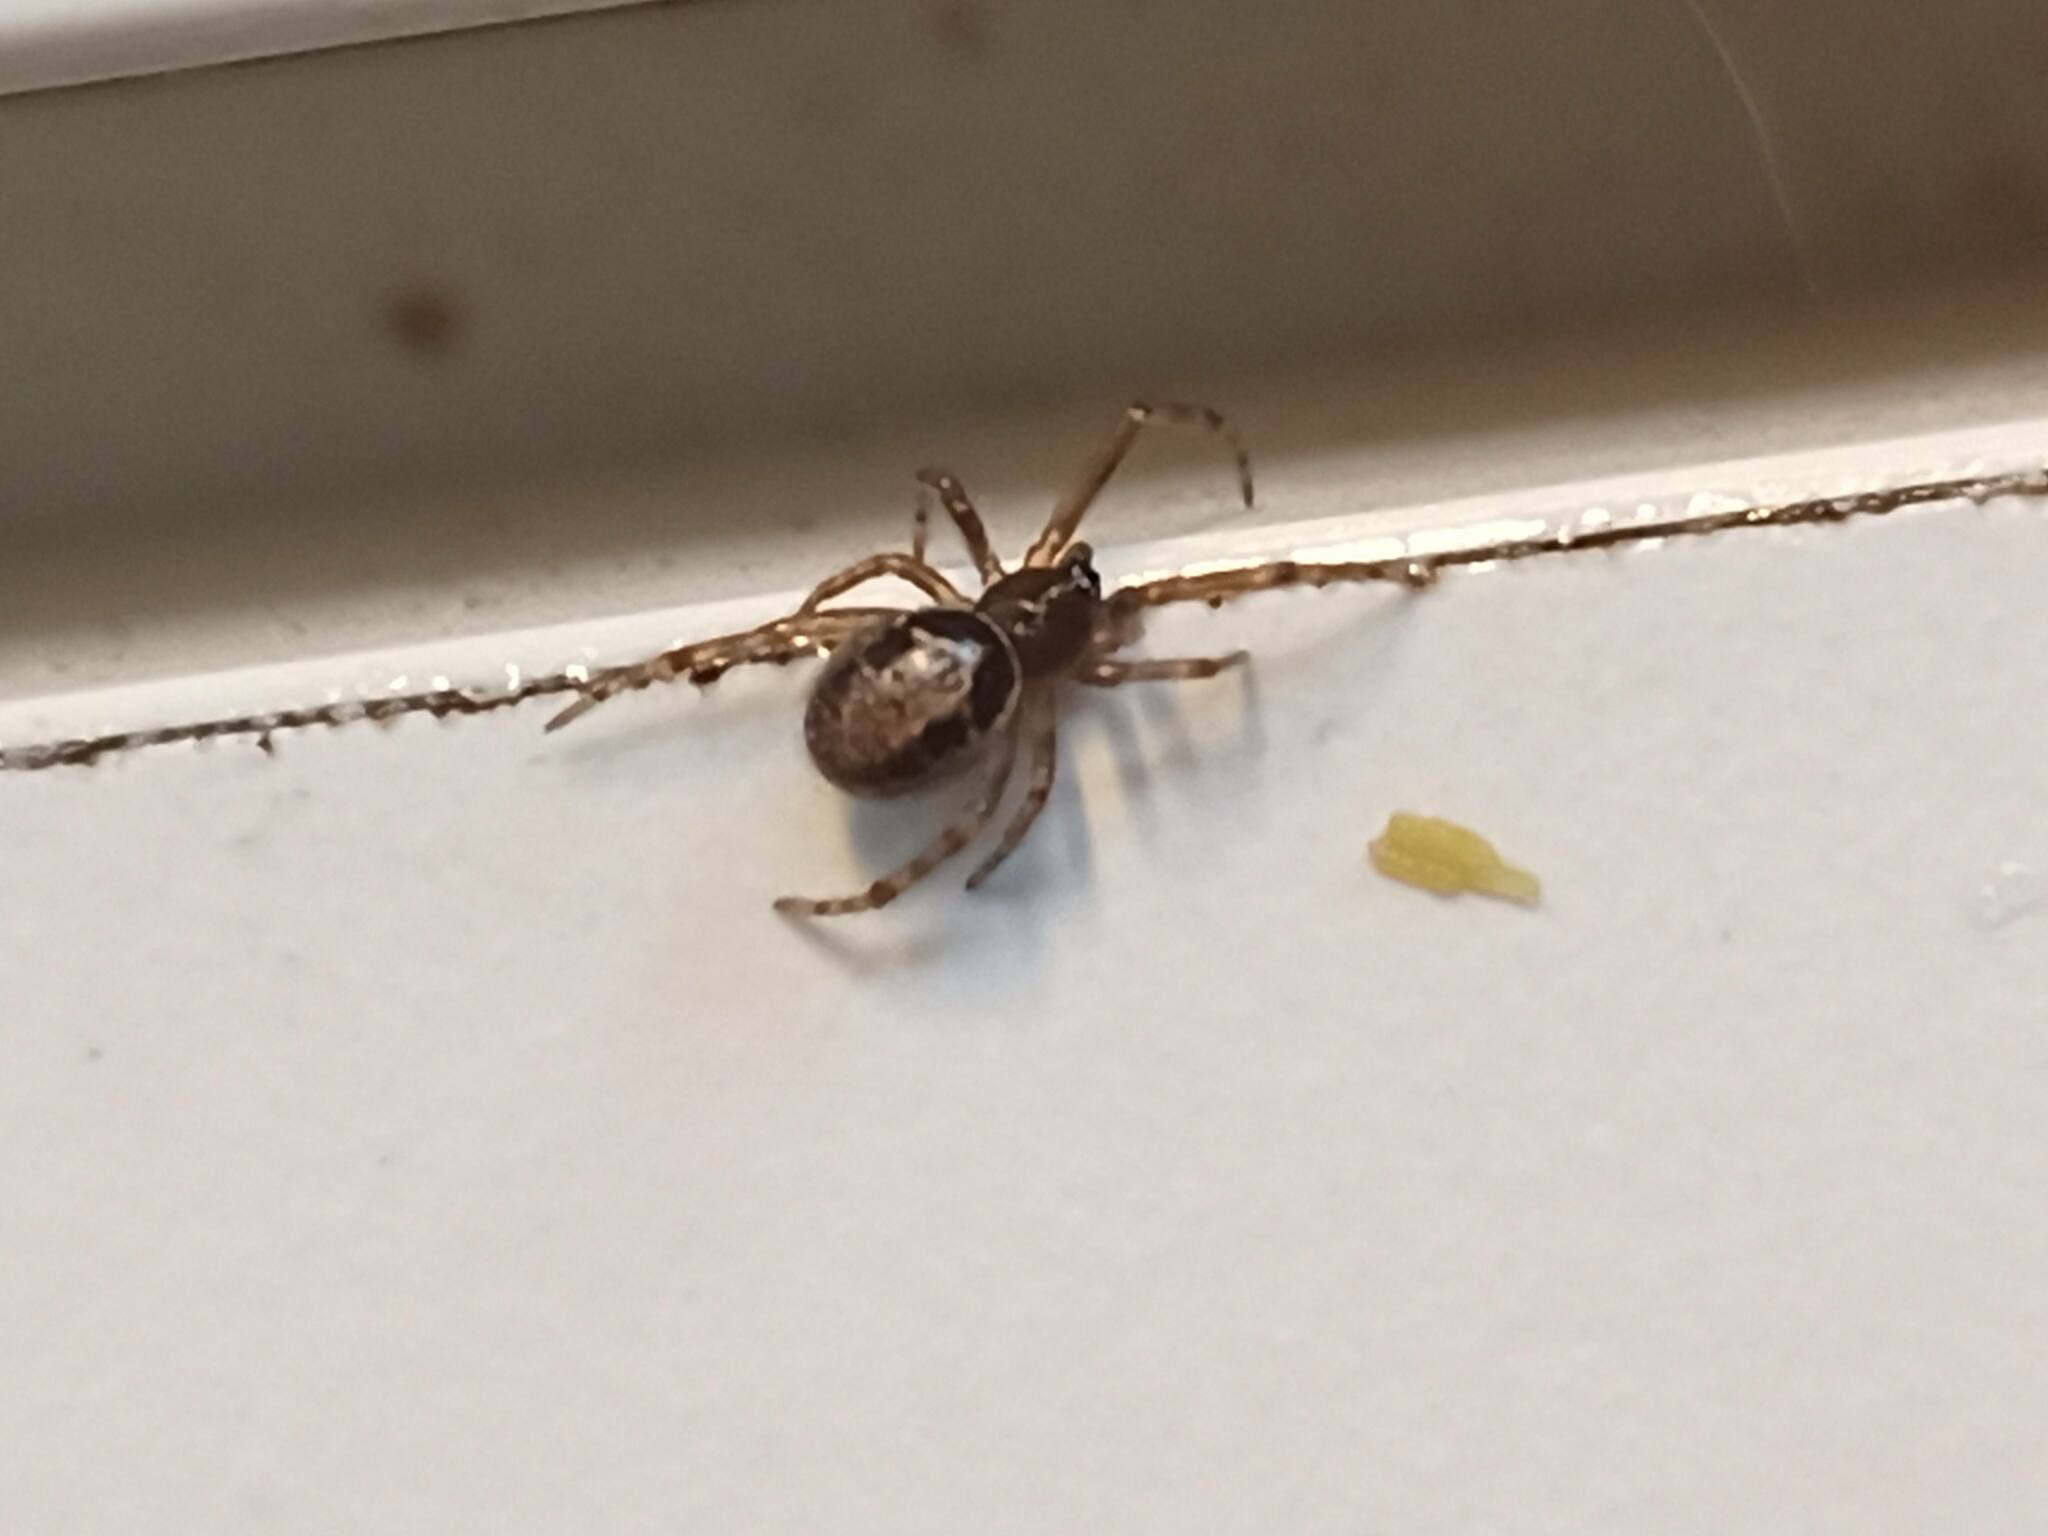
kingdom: Animalia
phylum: Arthropoda
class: Arachnida
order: Araneae
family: Theridiidae
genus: Steatoda
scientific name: Steatoda nobilis
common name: Cobweb weaver
